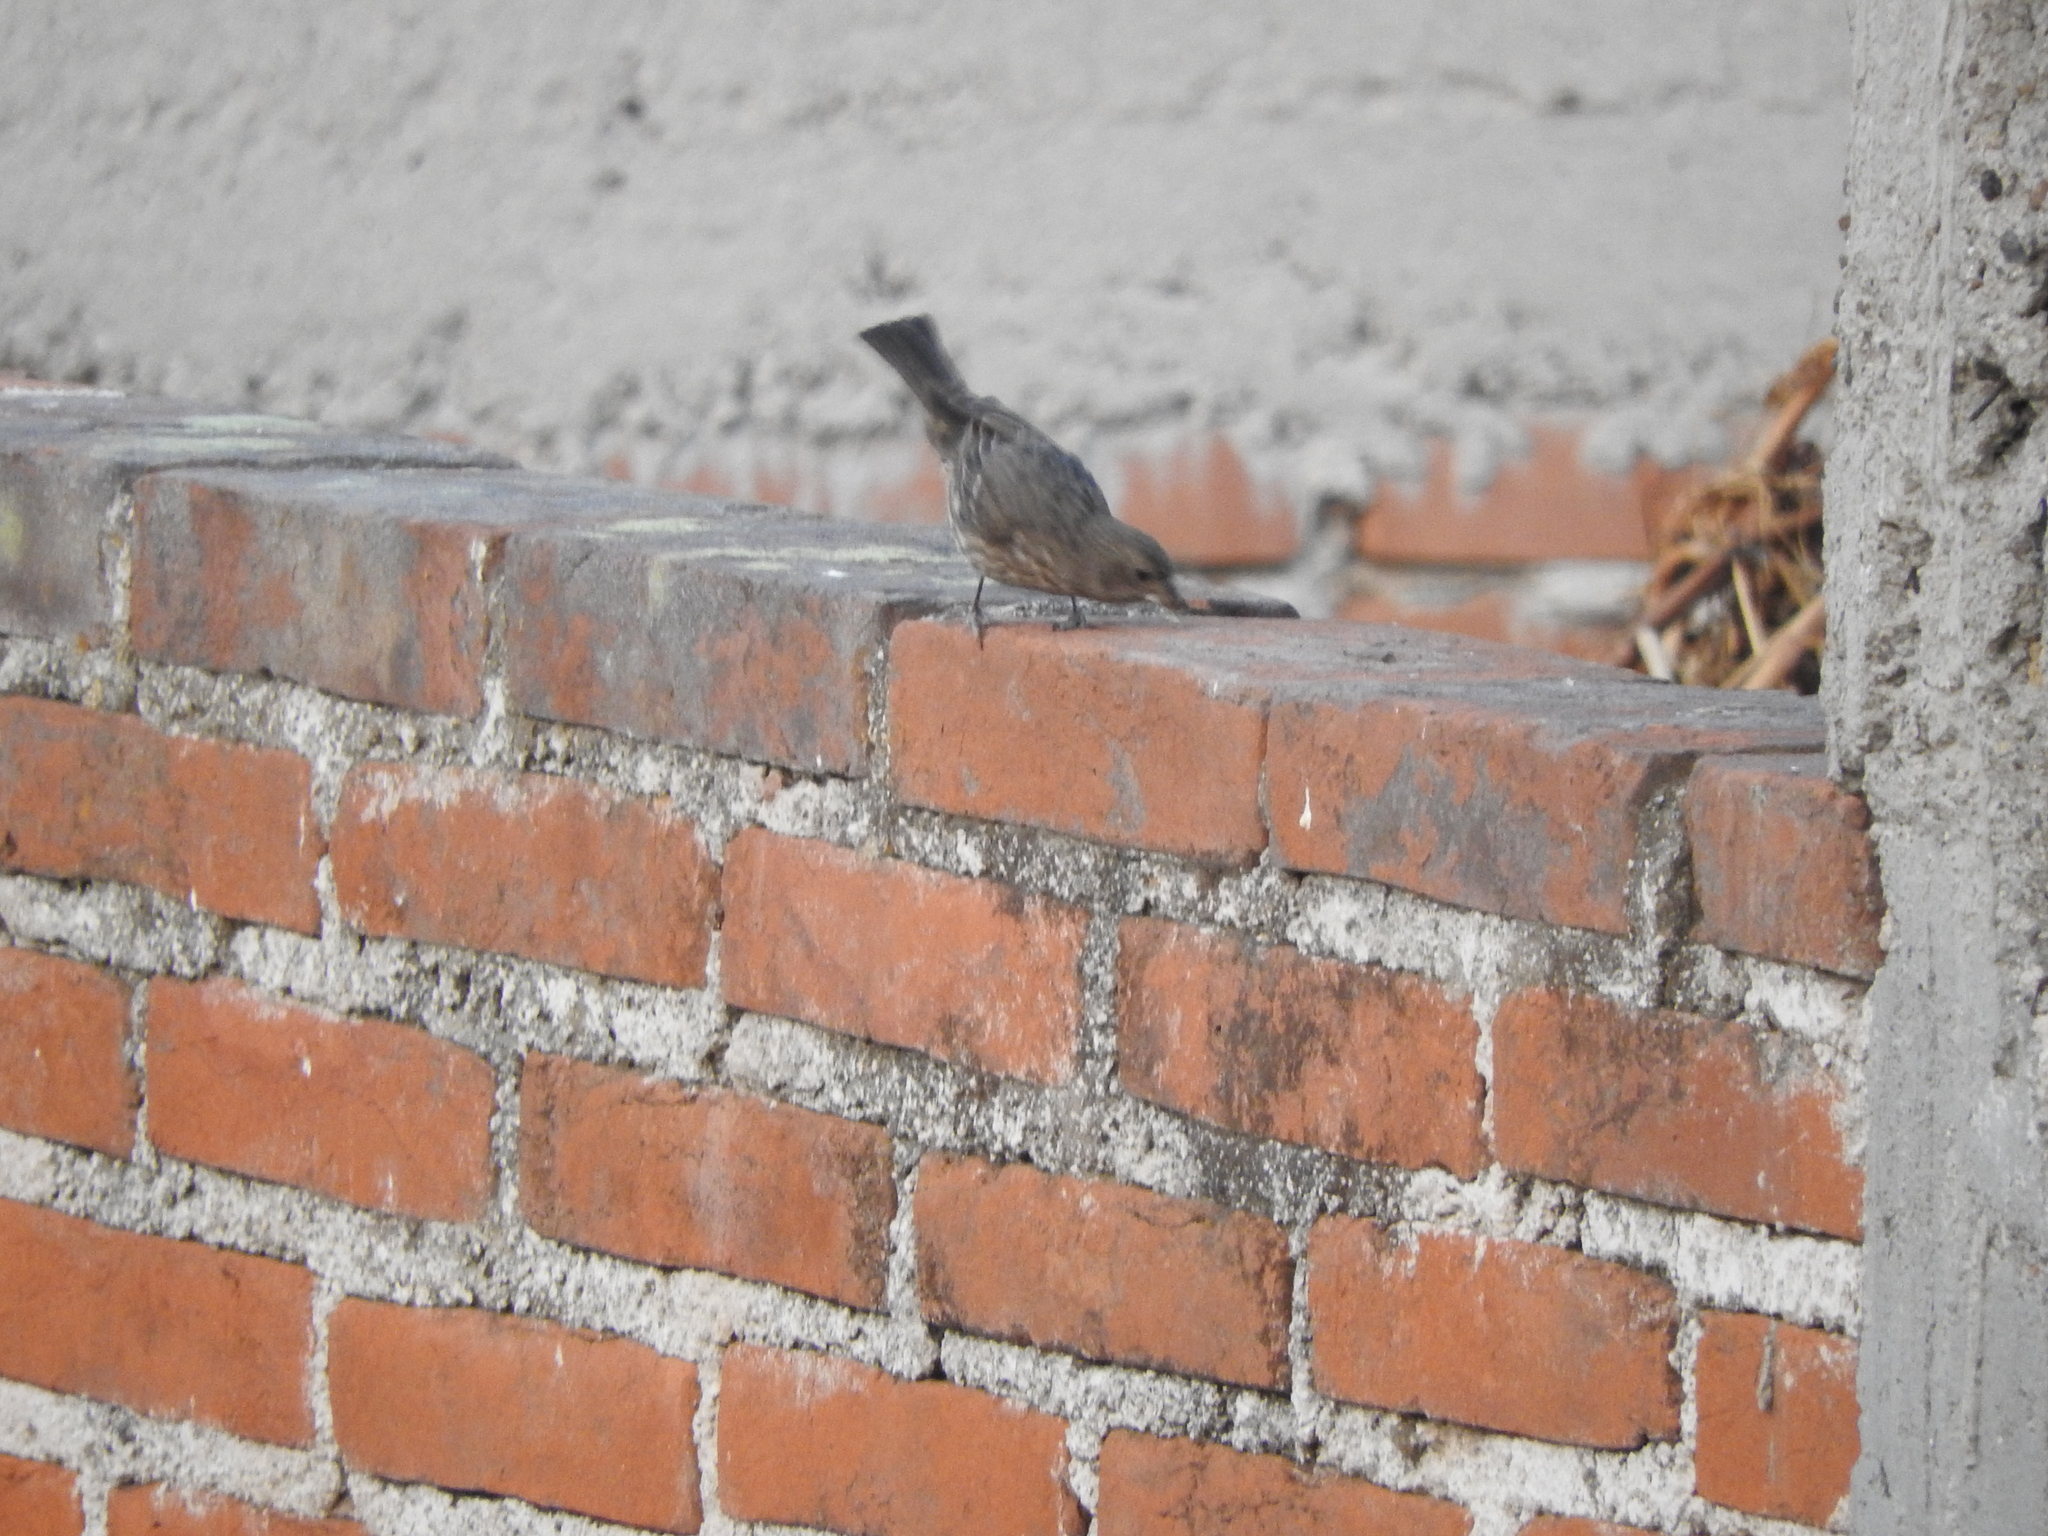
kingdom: Animalia
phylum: Chordata
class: Aves
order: Passeriformes
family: Fringillidae
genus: Haemorhous
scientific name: Haemorhous mexicanus
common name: House finch
